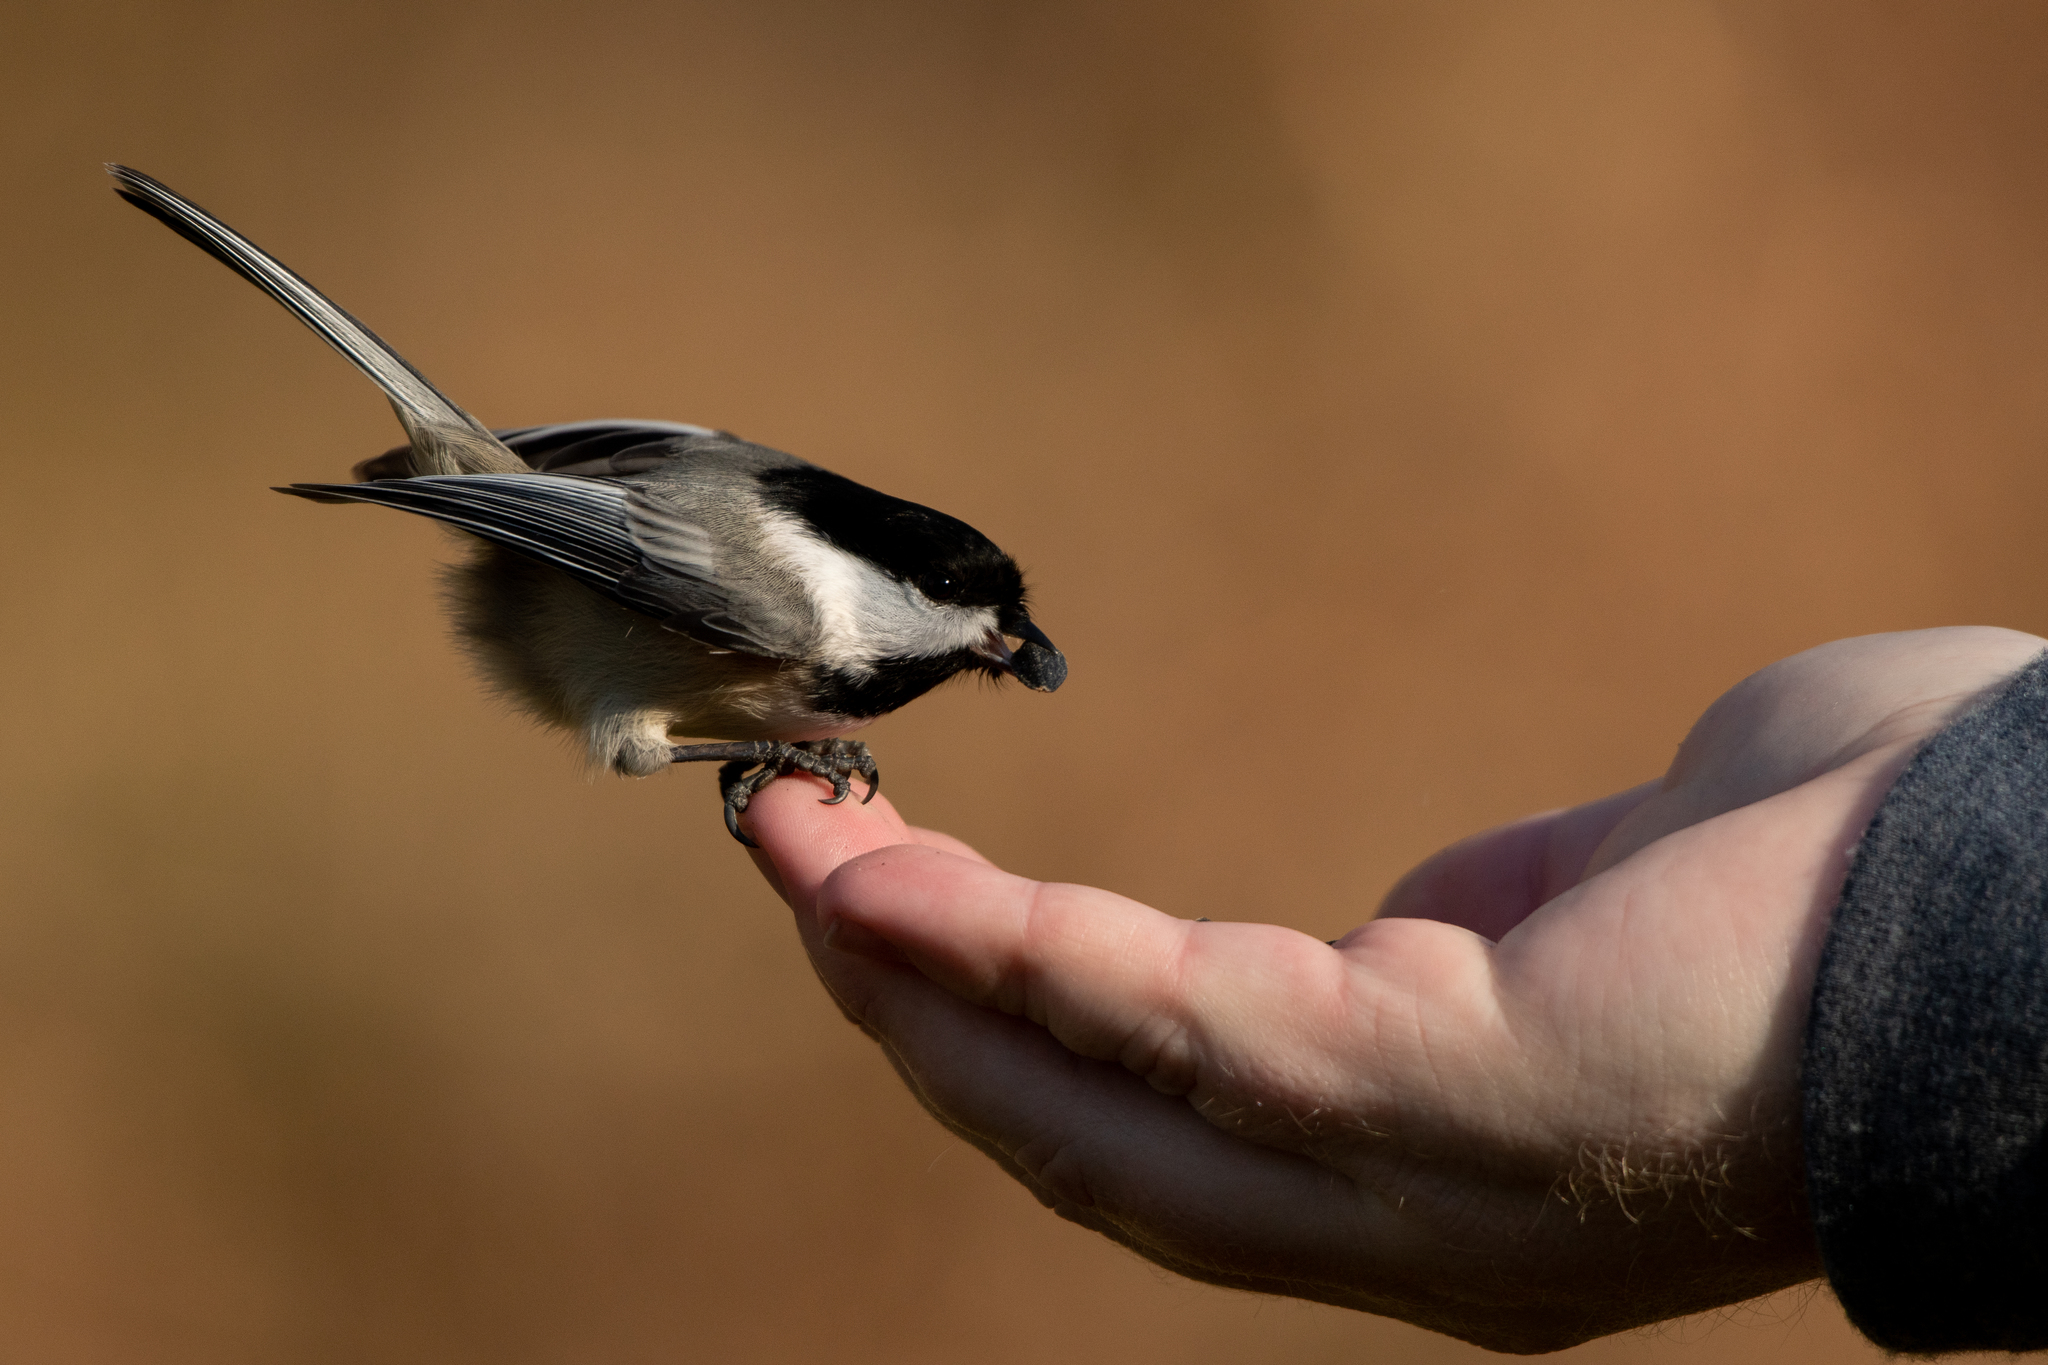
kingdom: Animalia
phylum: Chordata
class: Aves
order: Passeriformes
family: Paridae
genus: Poecile
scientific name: Poecile atricapillus
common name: Black-capped chickadee
